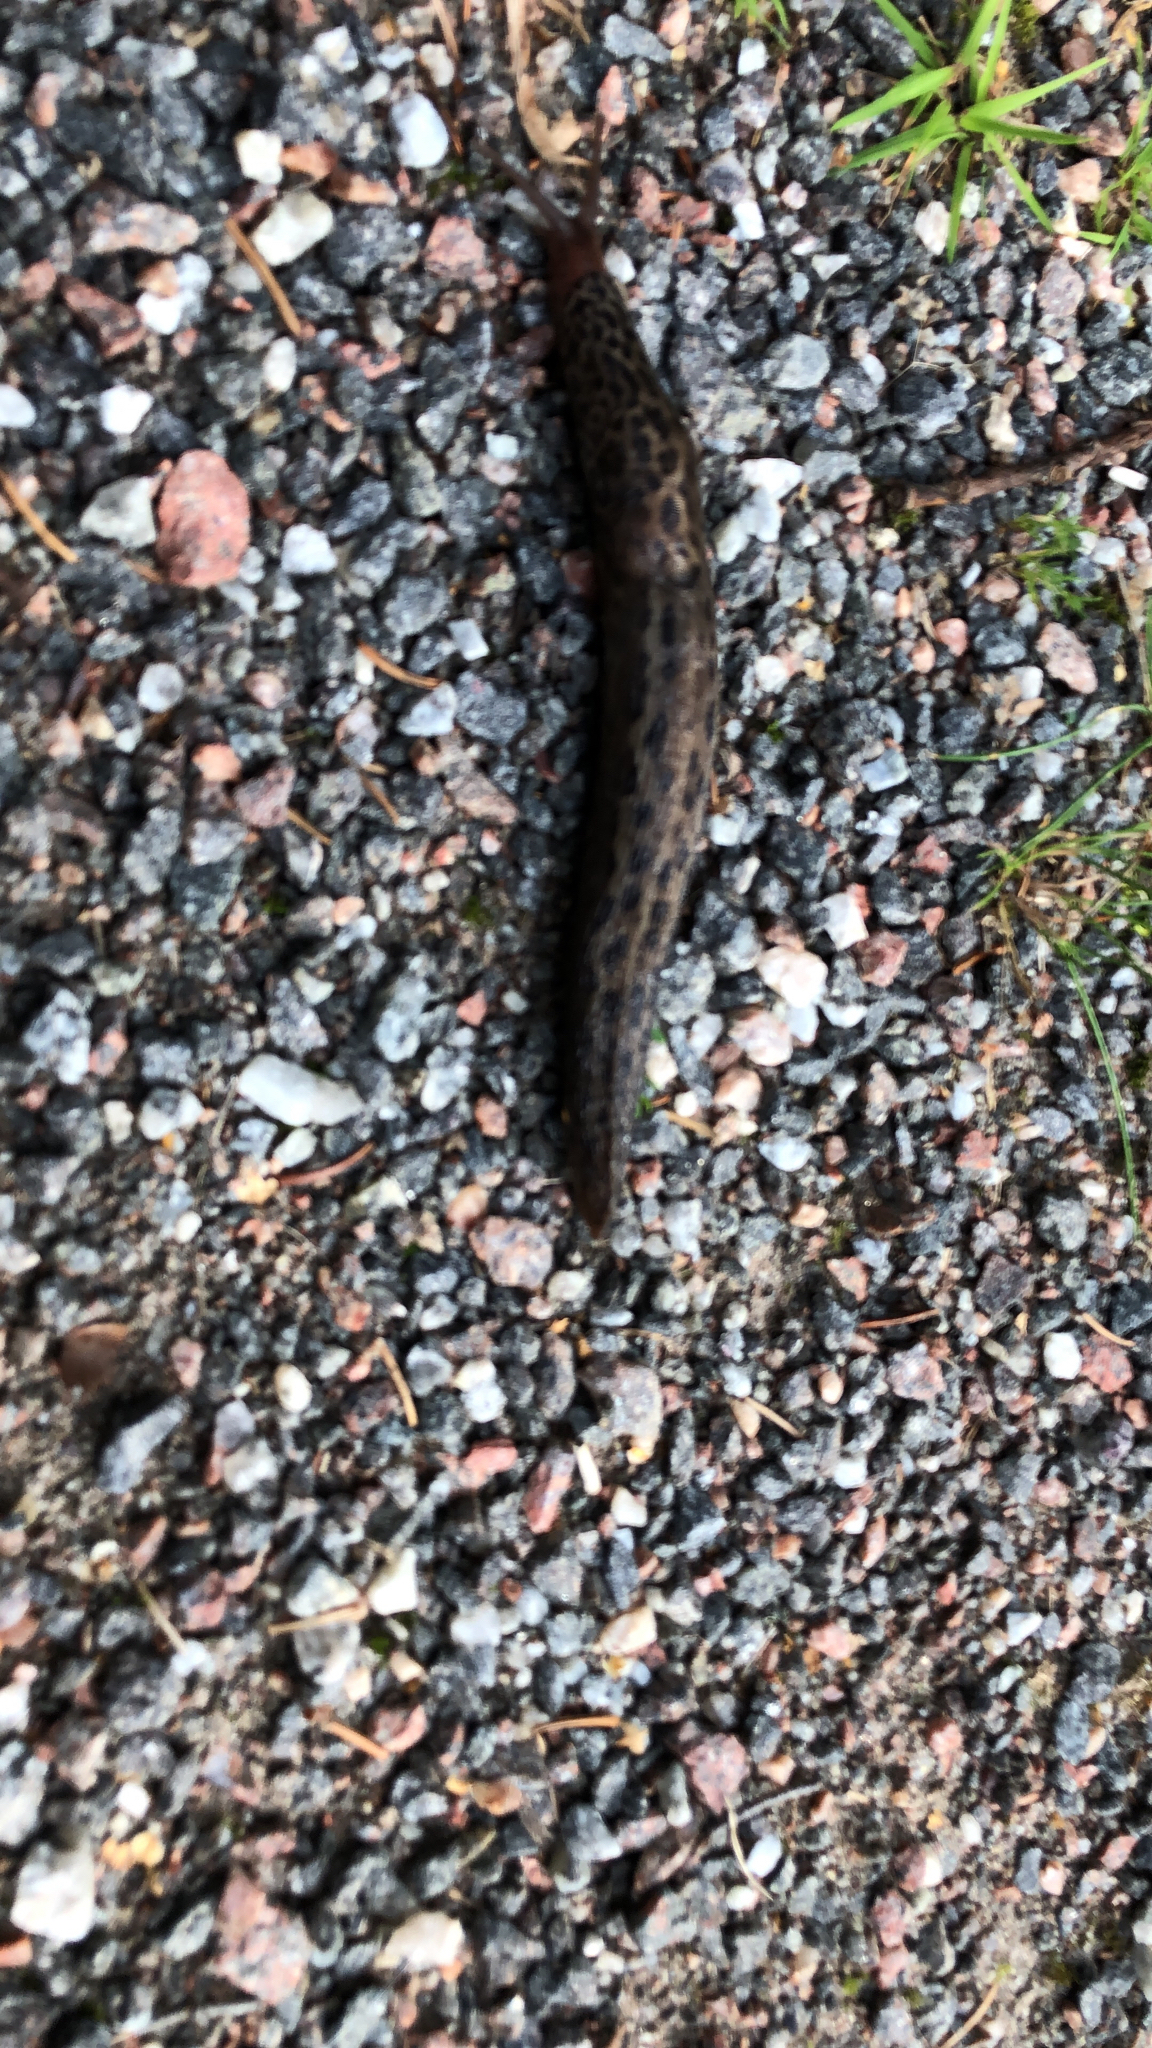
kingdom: Animalia
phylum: Mollusca
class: Gastropoda
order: Stylommatophora
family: Limacidae
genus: Limax
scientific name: Limax maximus
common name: Great grey slug
